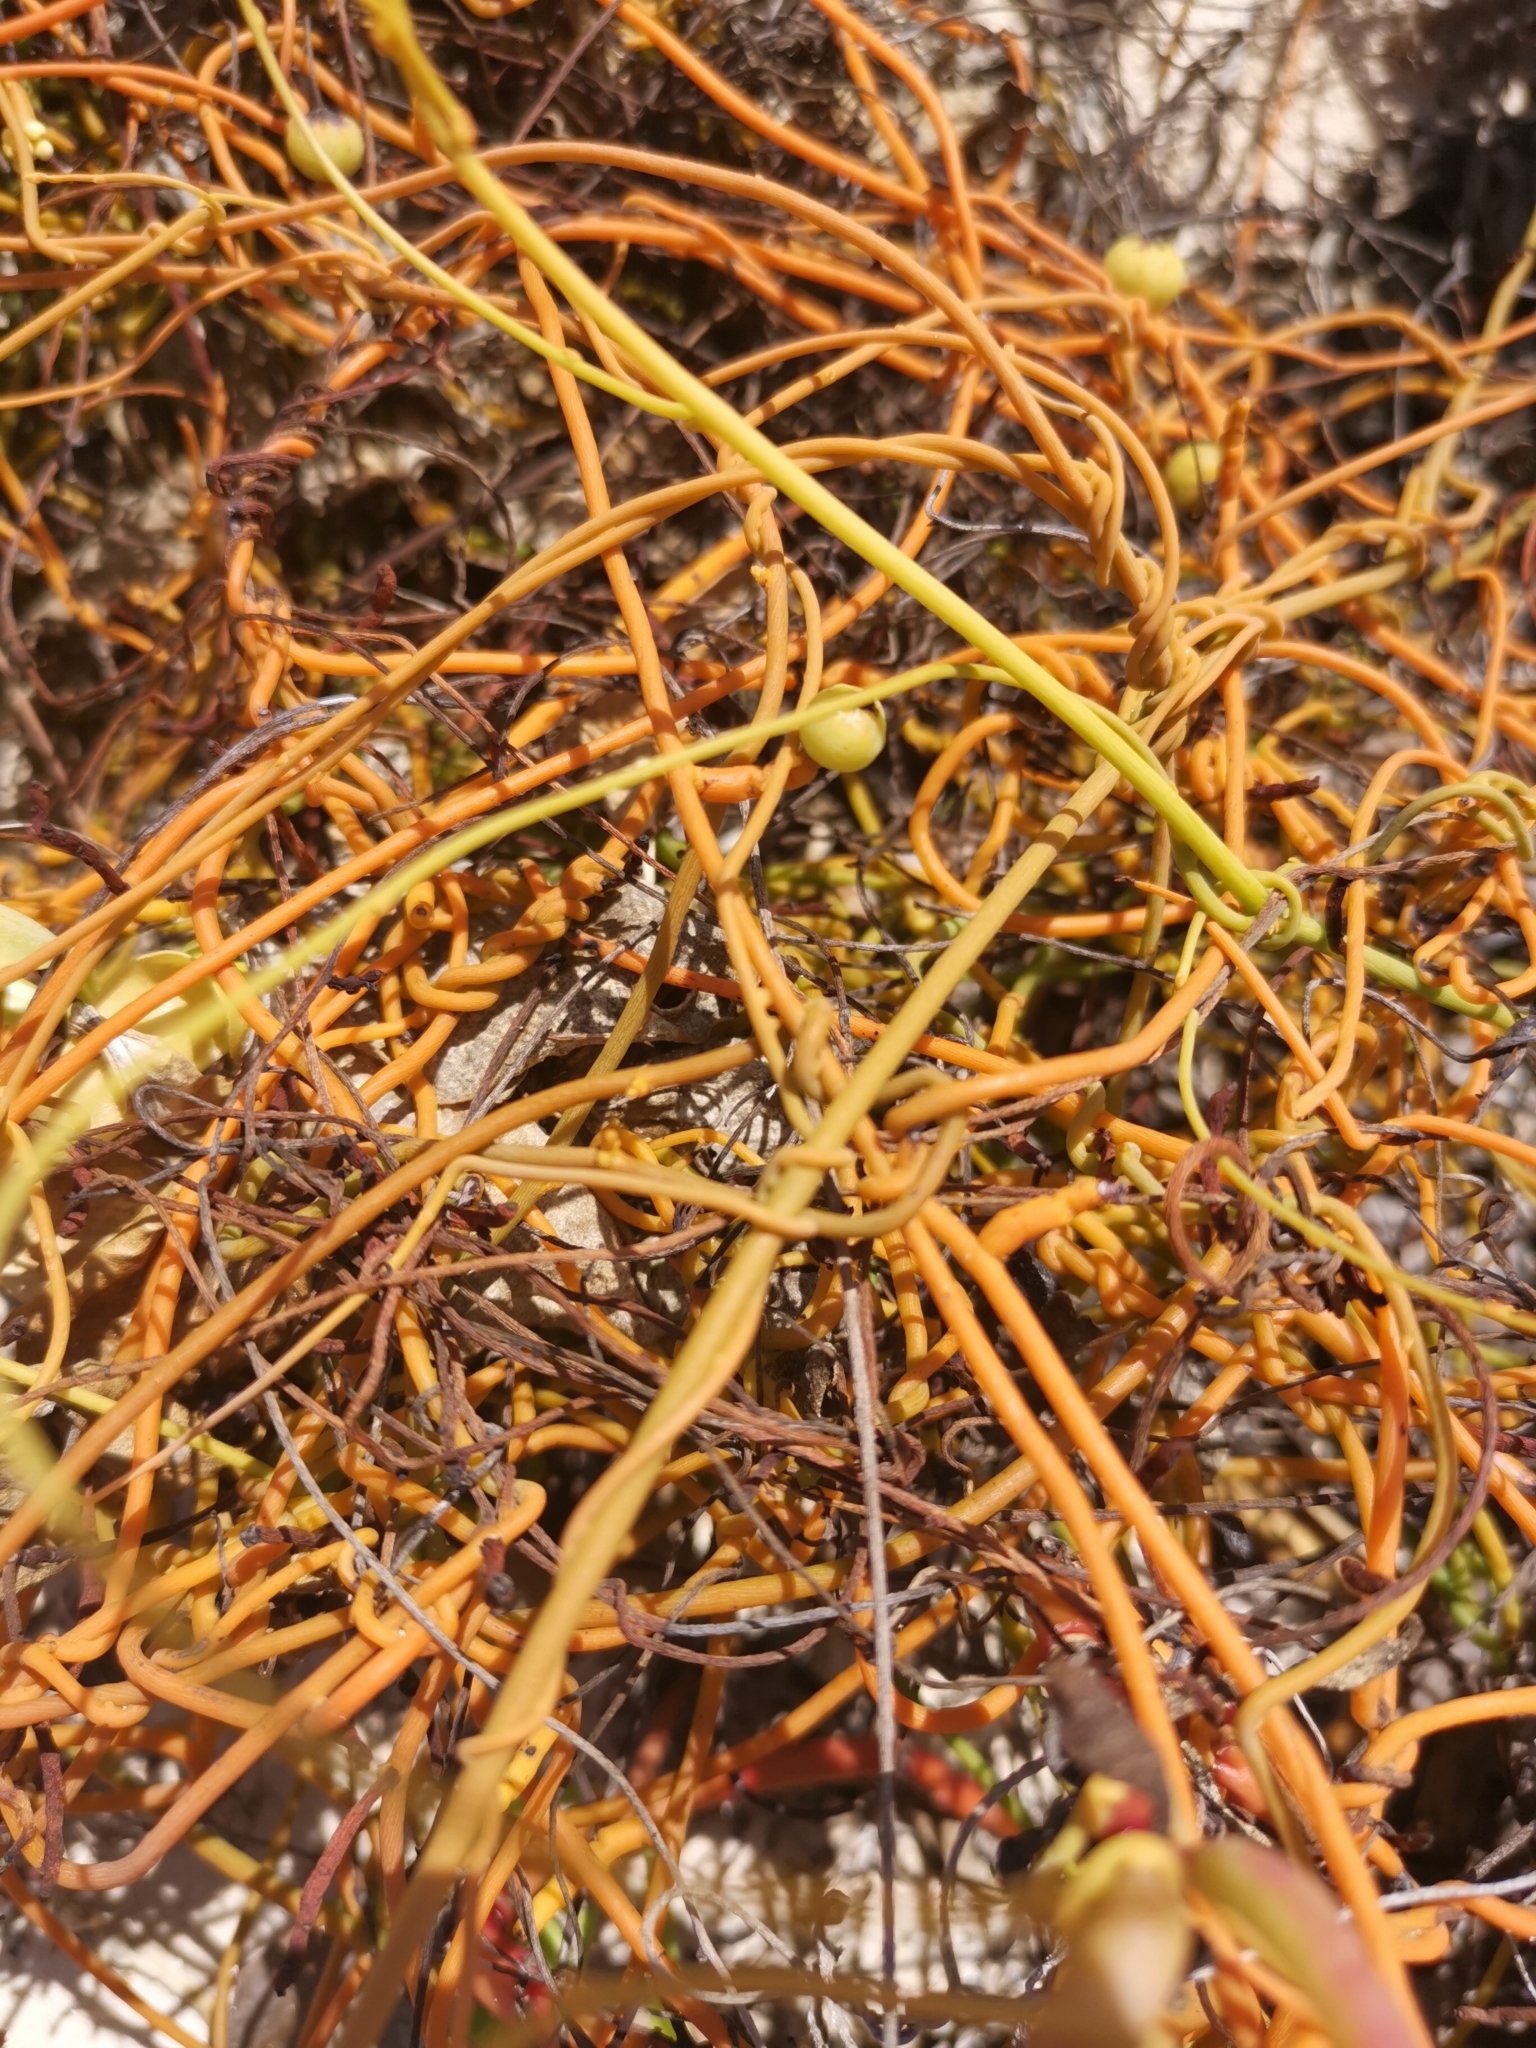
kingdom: Plantae
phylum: Tracheophyta
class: Magnoliopsida
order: Laurales
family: Lauraceae
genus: Cassytha
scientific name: Cassytha filiformis
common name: Dodder-laurel
